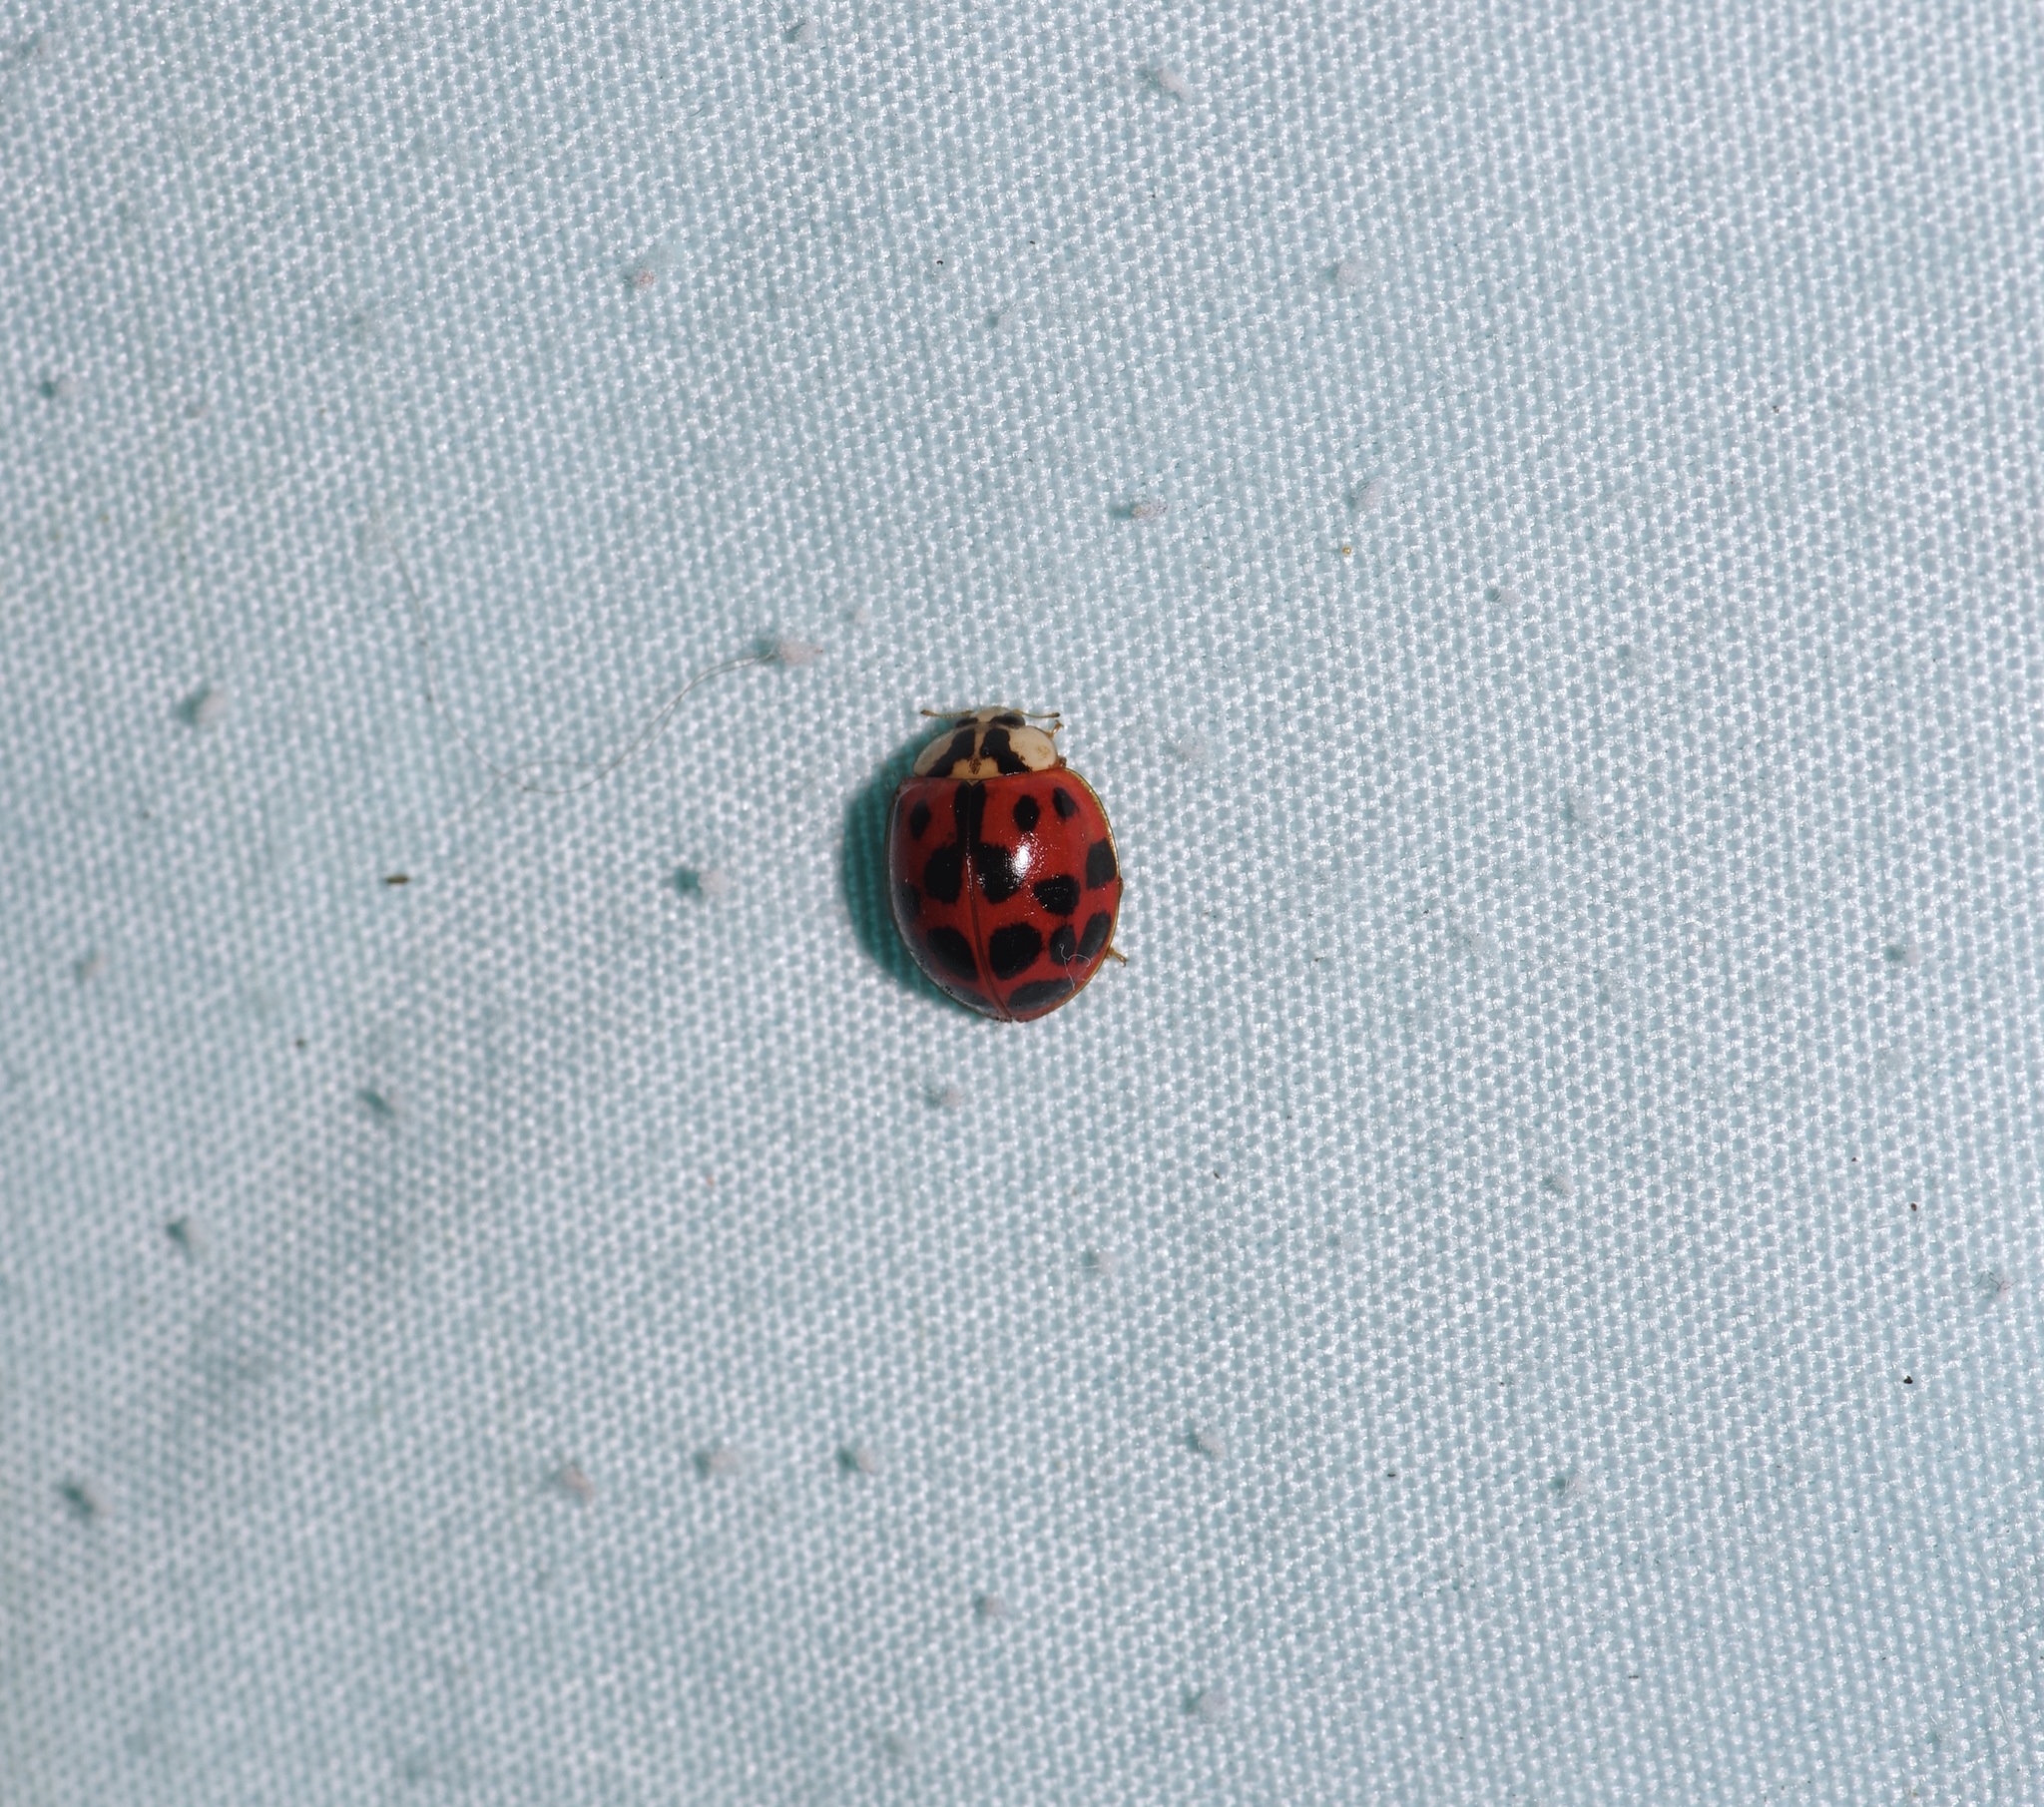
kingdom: Animalia
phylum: Arthropoda
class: Insecta
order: Coleoptera
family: Coccinellidae
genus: Harmonia
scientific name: Harmonia axyridis
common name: Harlequin ladybird
